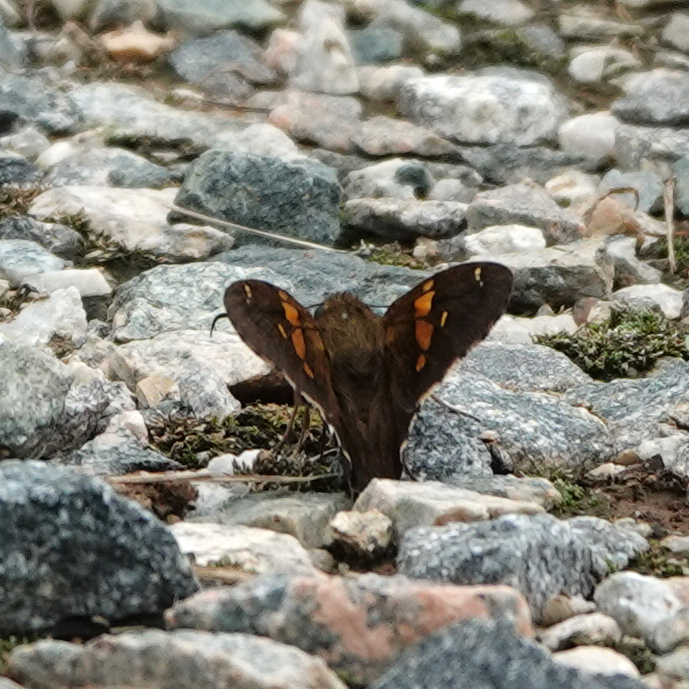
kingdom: Animalia
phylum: Arthropoda
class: Insecta
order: Lepidoptera
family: Hesperiidae
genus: Epargyreus
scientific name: Epargyreus clarus
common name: Silver-spotted skipper
